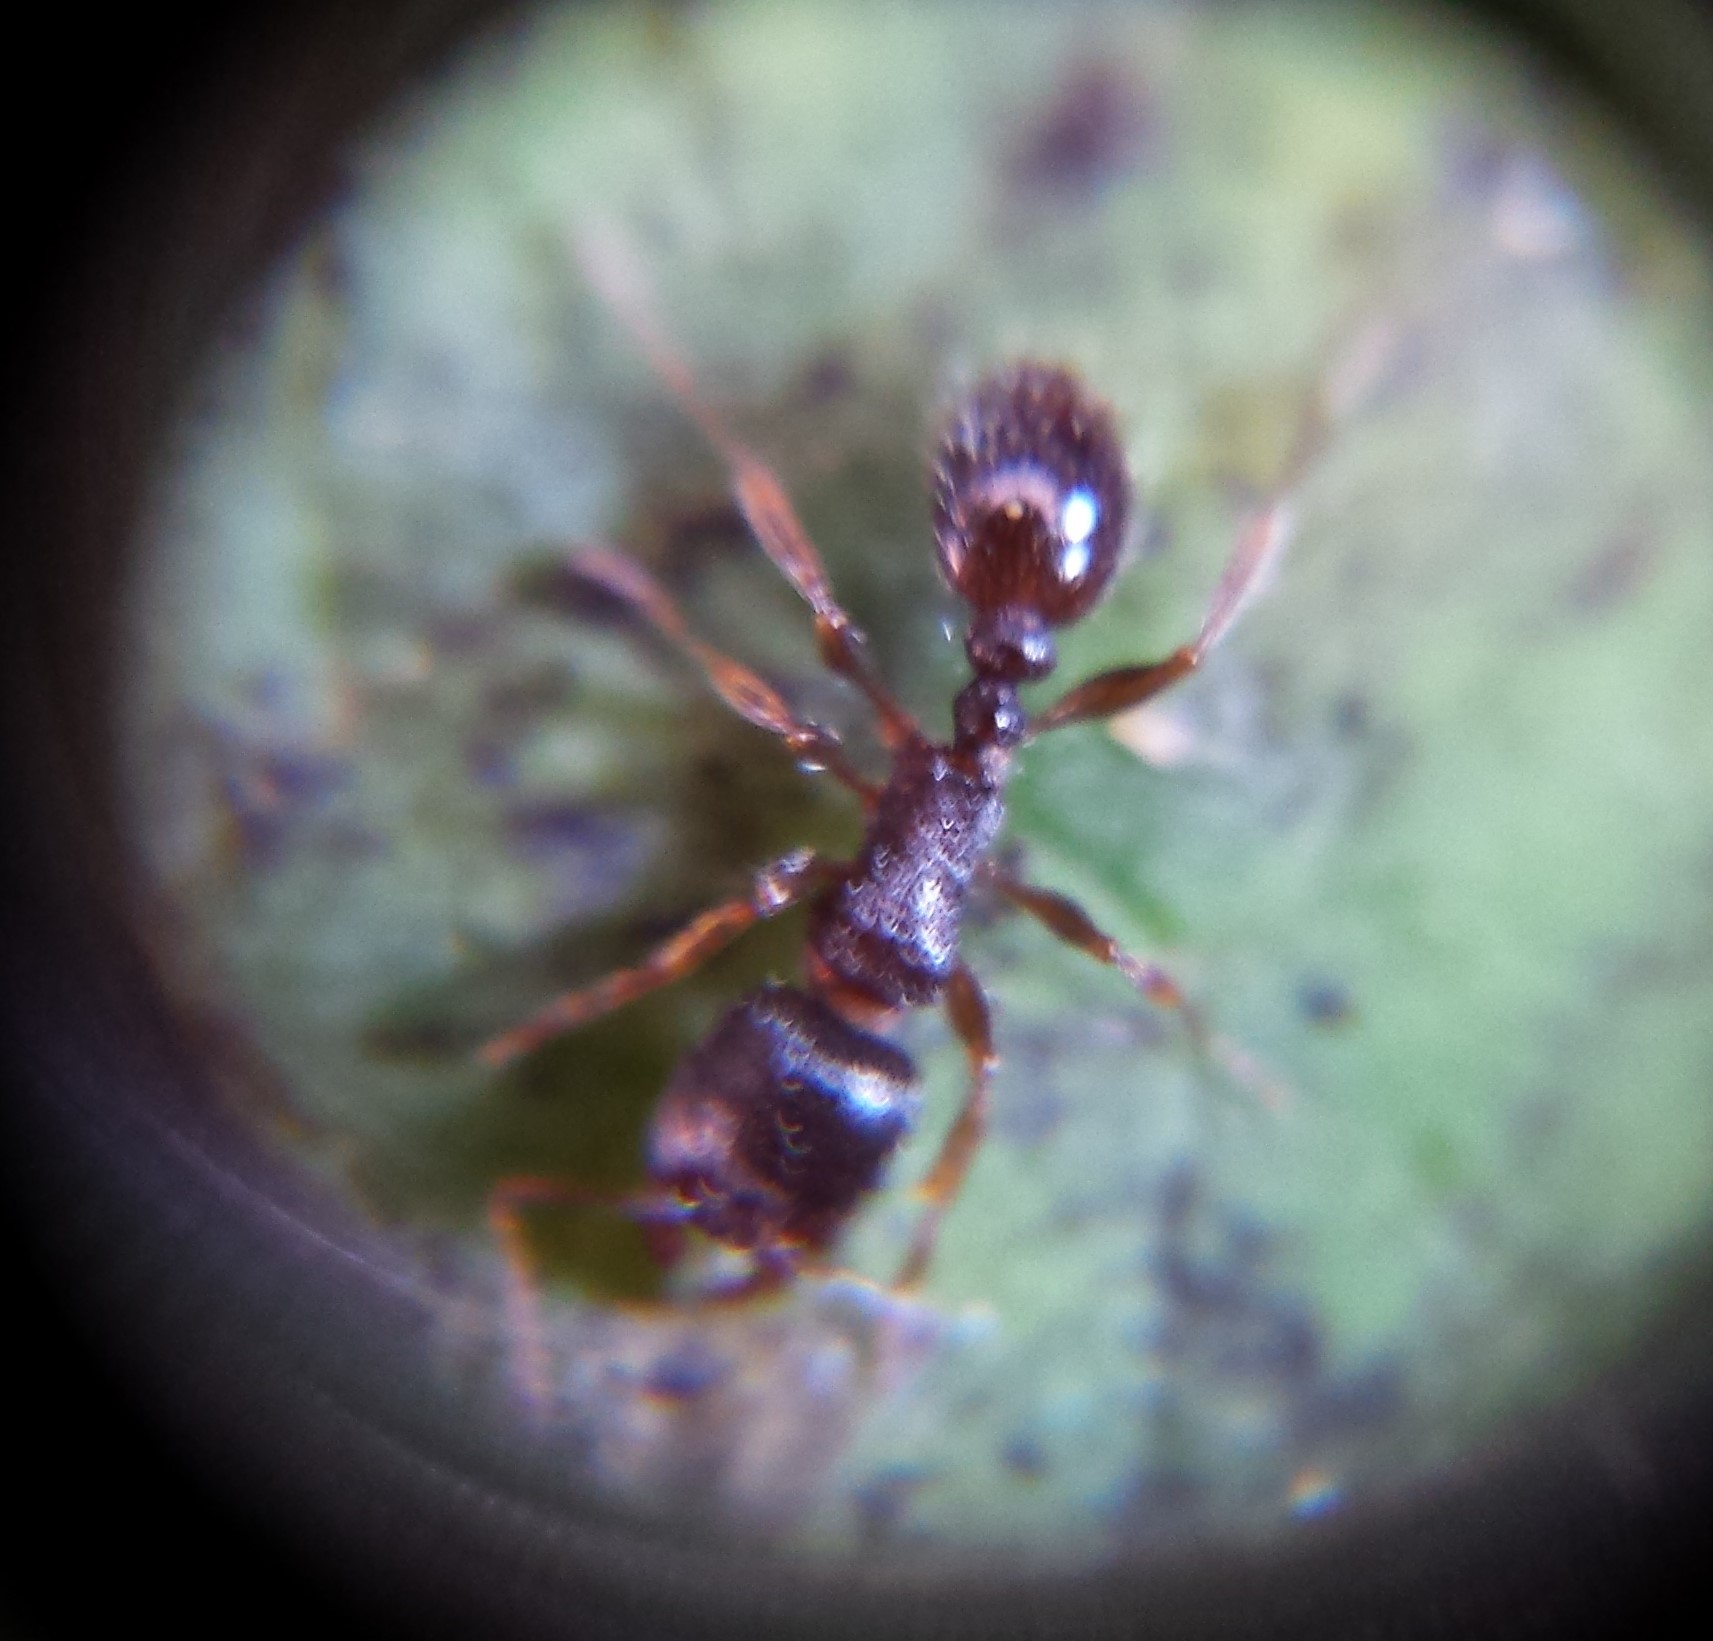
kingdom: Animalia
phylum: Arthropoda
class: Insecta
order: Hymenoptera
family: Formicidae
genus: Tetramorium
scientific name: Tetramorium immigrans
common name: Pavement ant
